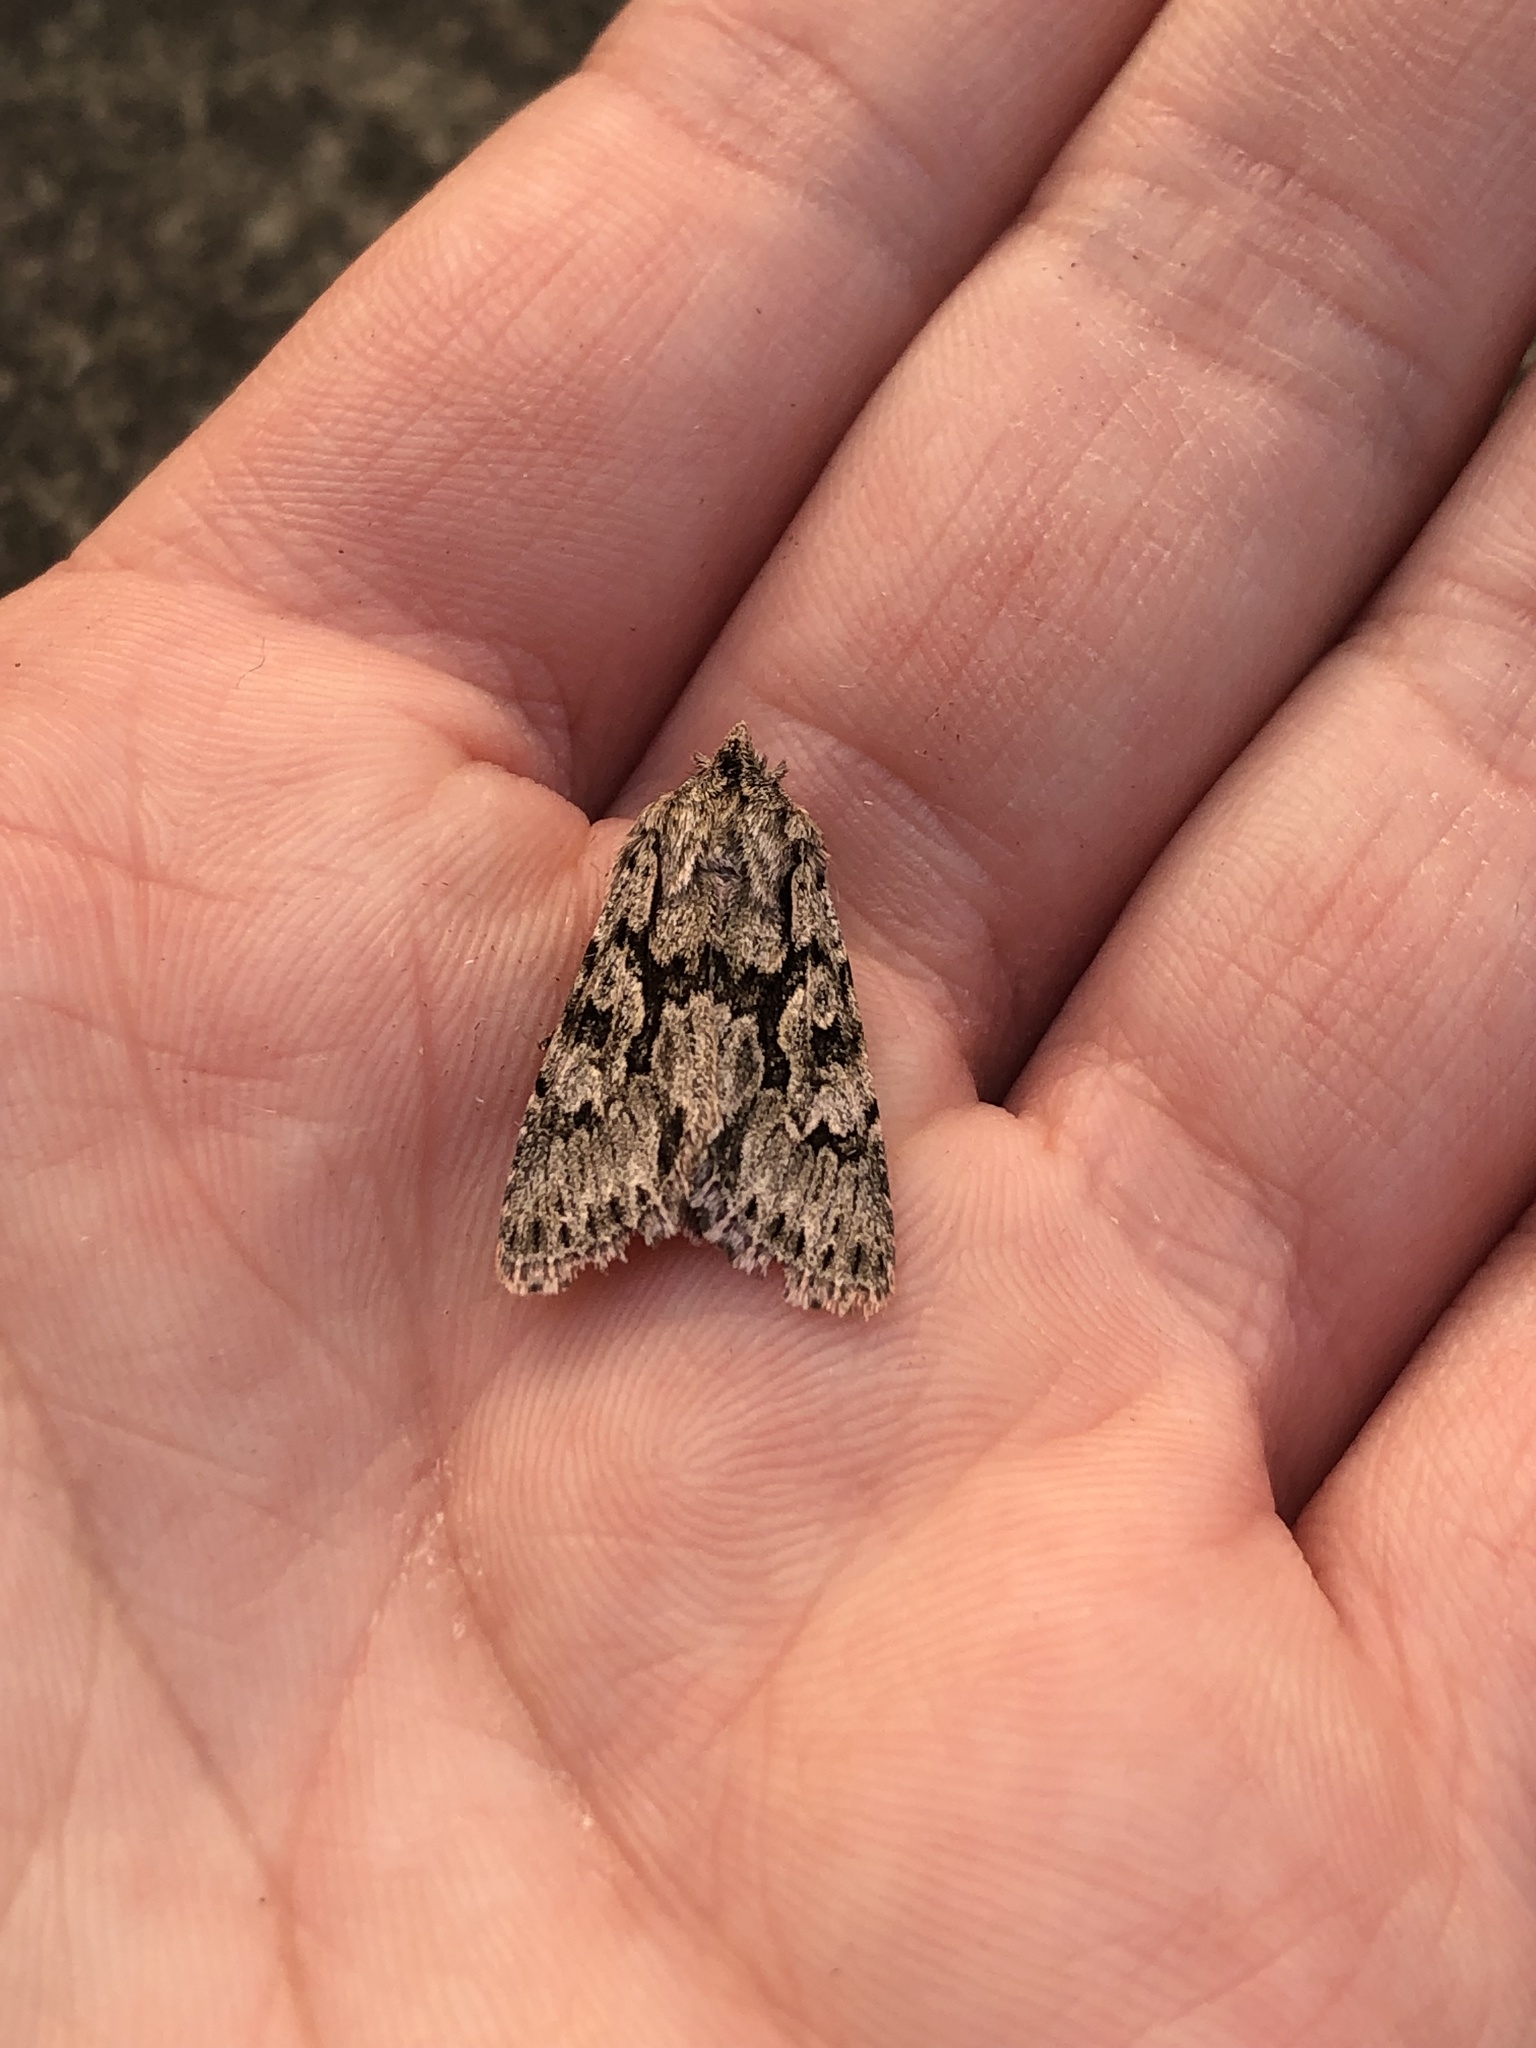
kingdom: Animalia
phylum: Arthropoda
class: Insecta
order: Lepidoptera
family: Noctuidae
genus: Xylocampa
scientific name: Xylocampa areola
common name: Early grey
